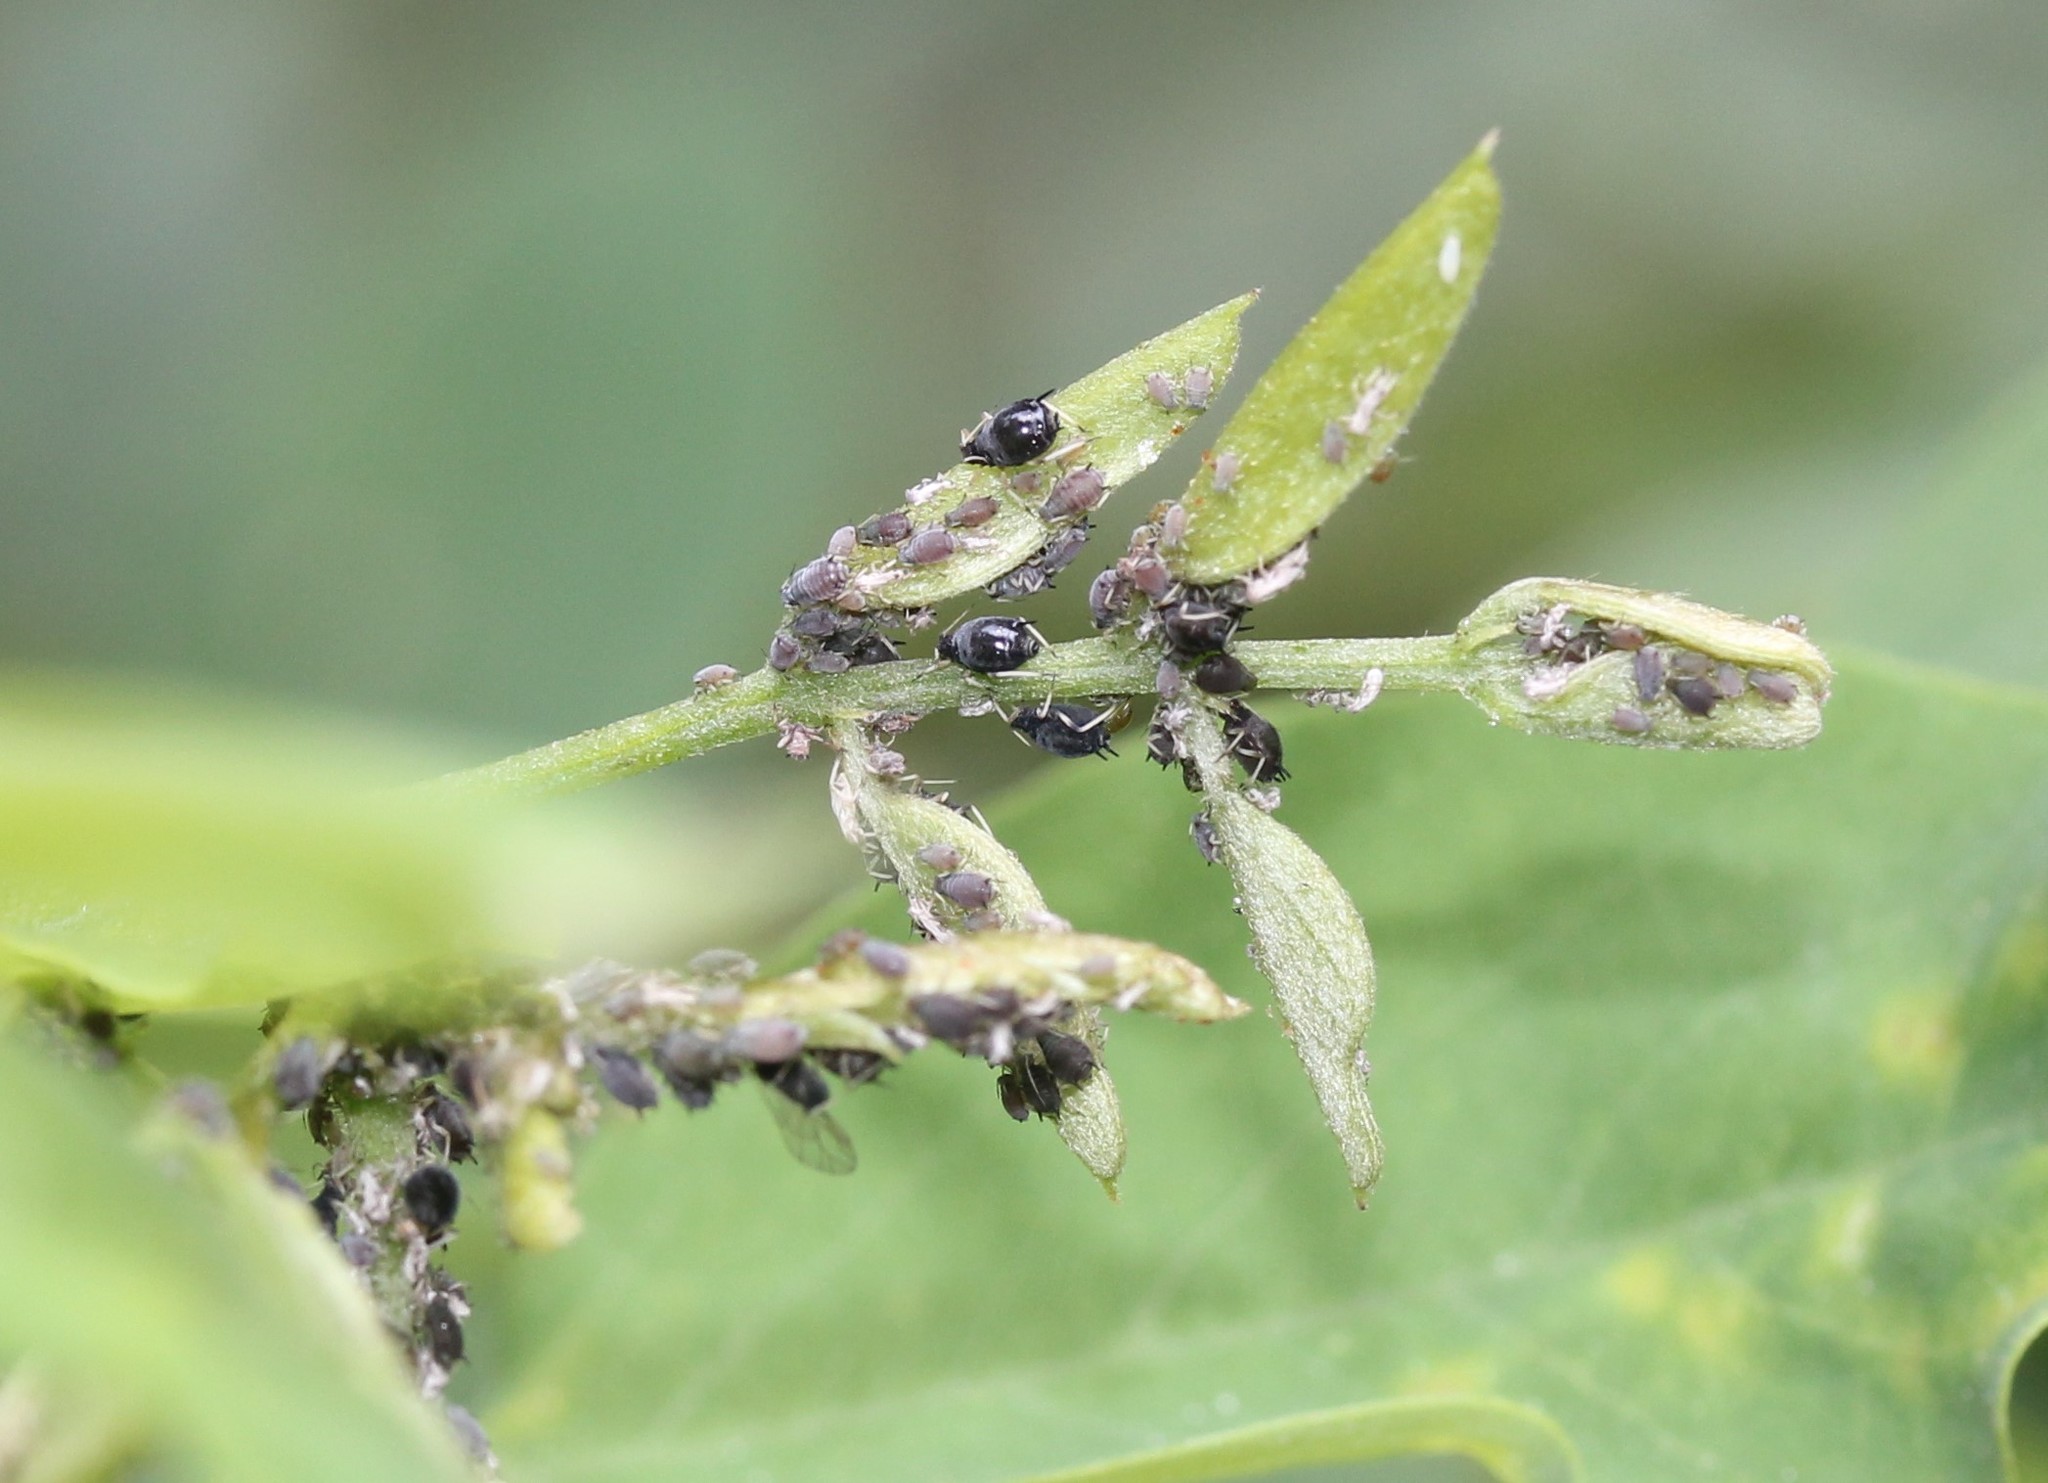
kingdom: Animalia
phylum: Arthropoda
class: Insecta
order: Hemiptera
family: Aphididae
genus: Aphis
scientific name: Aphis craccivora
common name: Cowpea aphid
